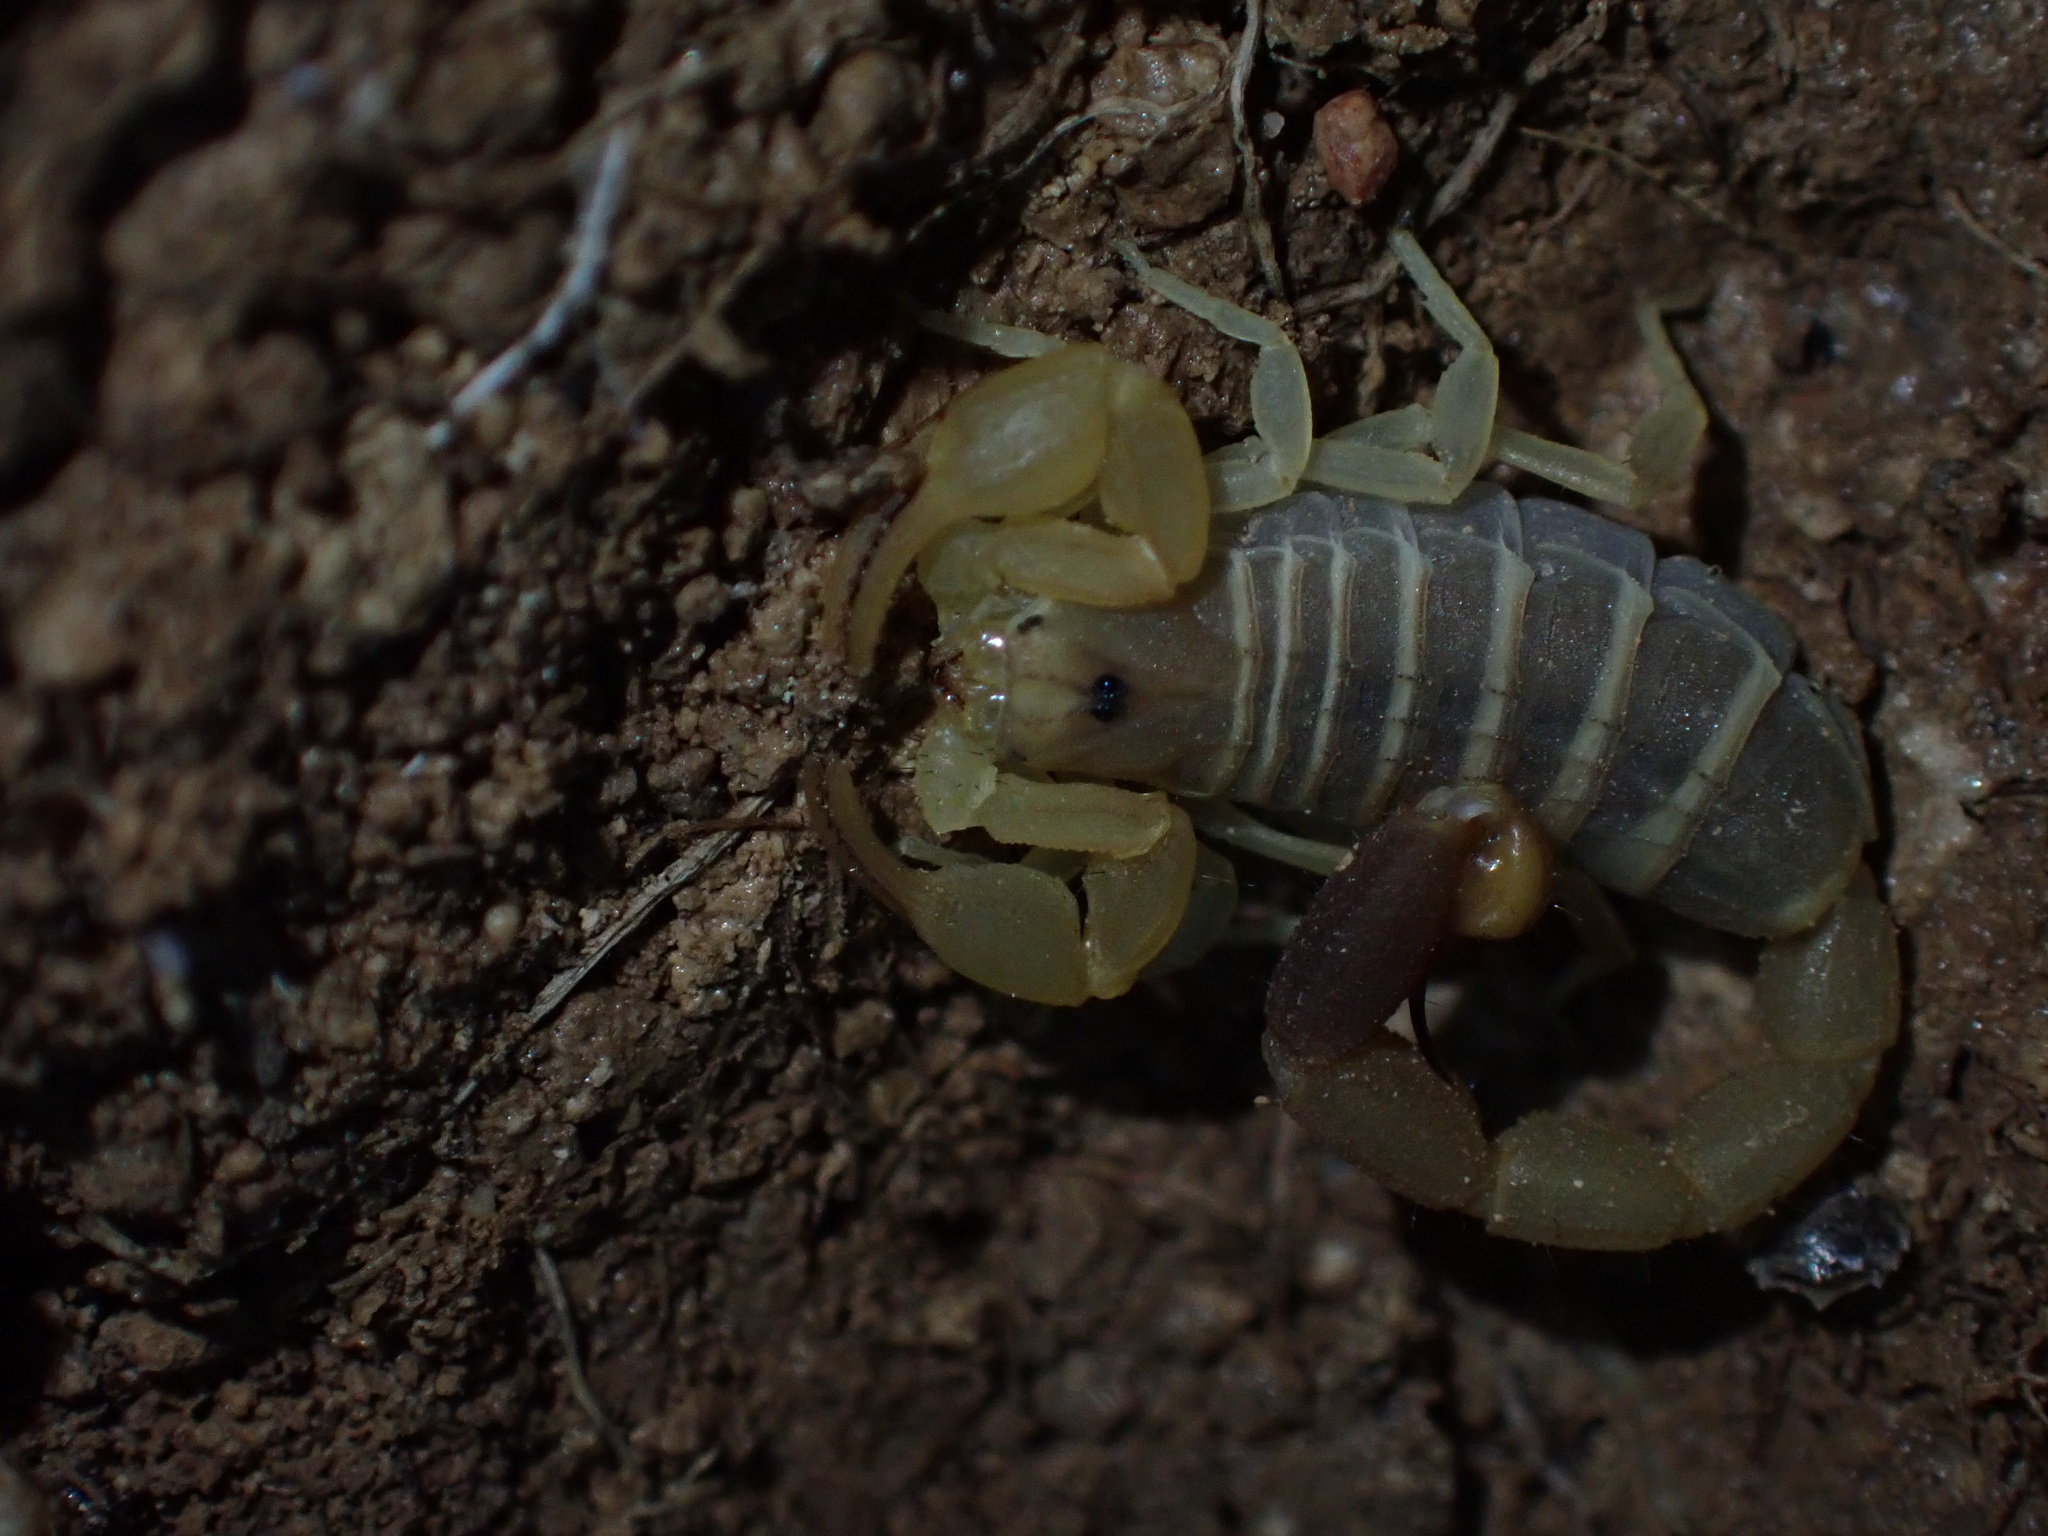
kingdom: Animalia
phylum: Arthropoda
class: Arachnida
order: Scorpiones
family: Buthidae
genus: Razianus
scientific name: Razianus zarudnyi
